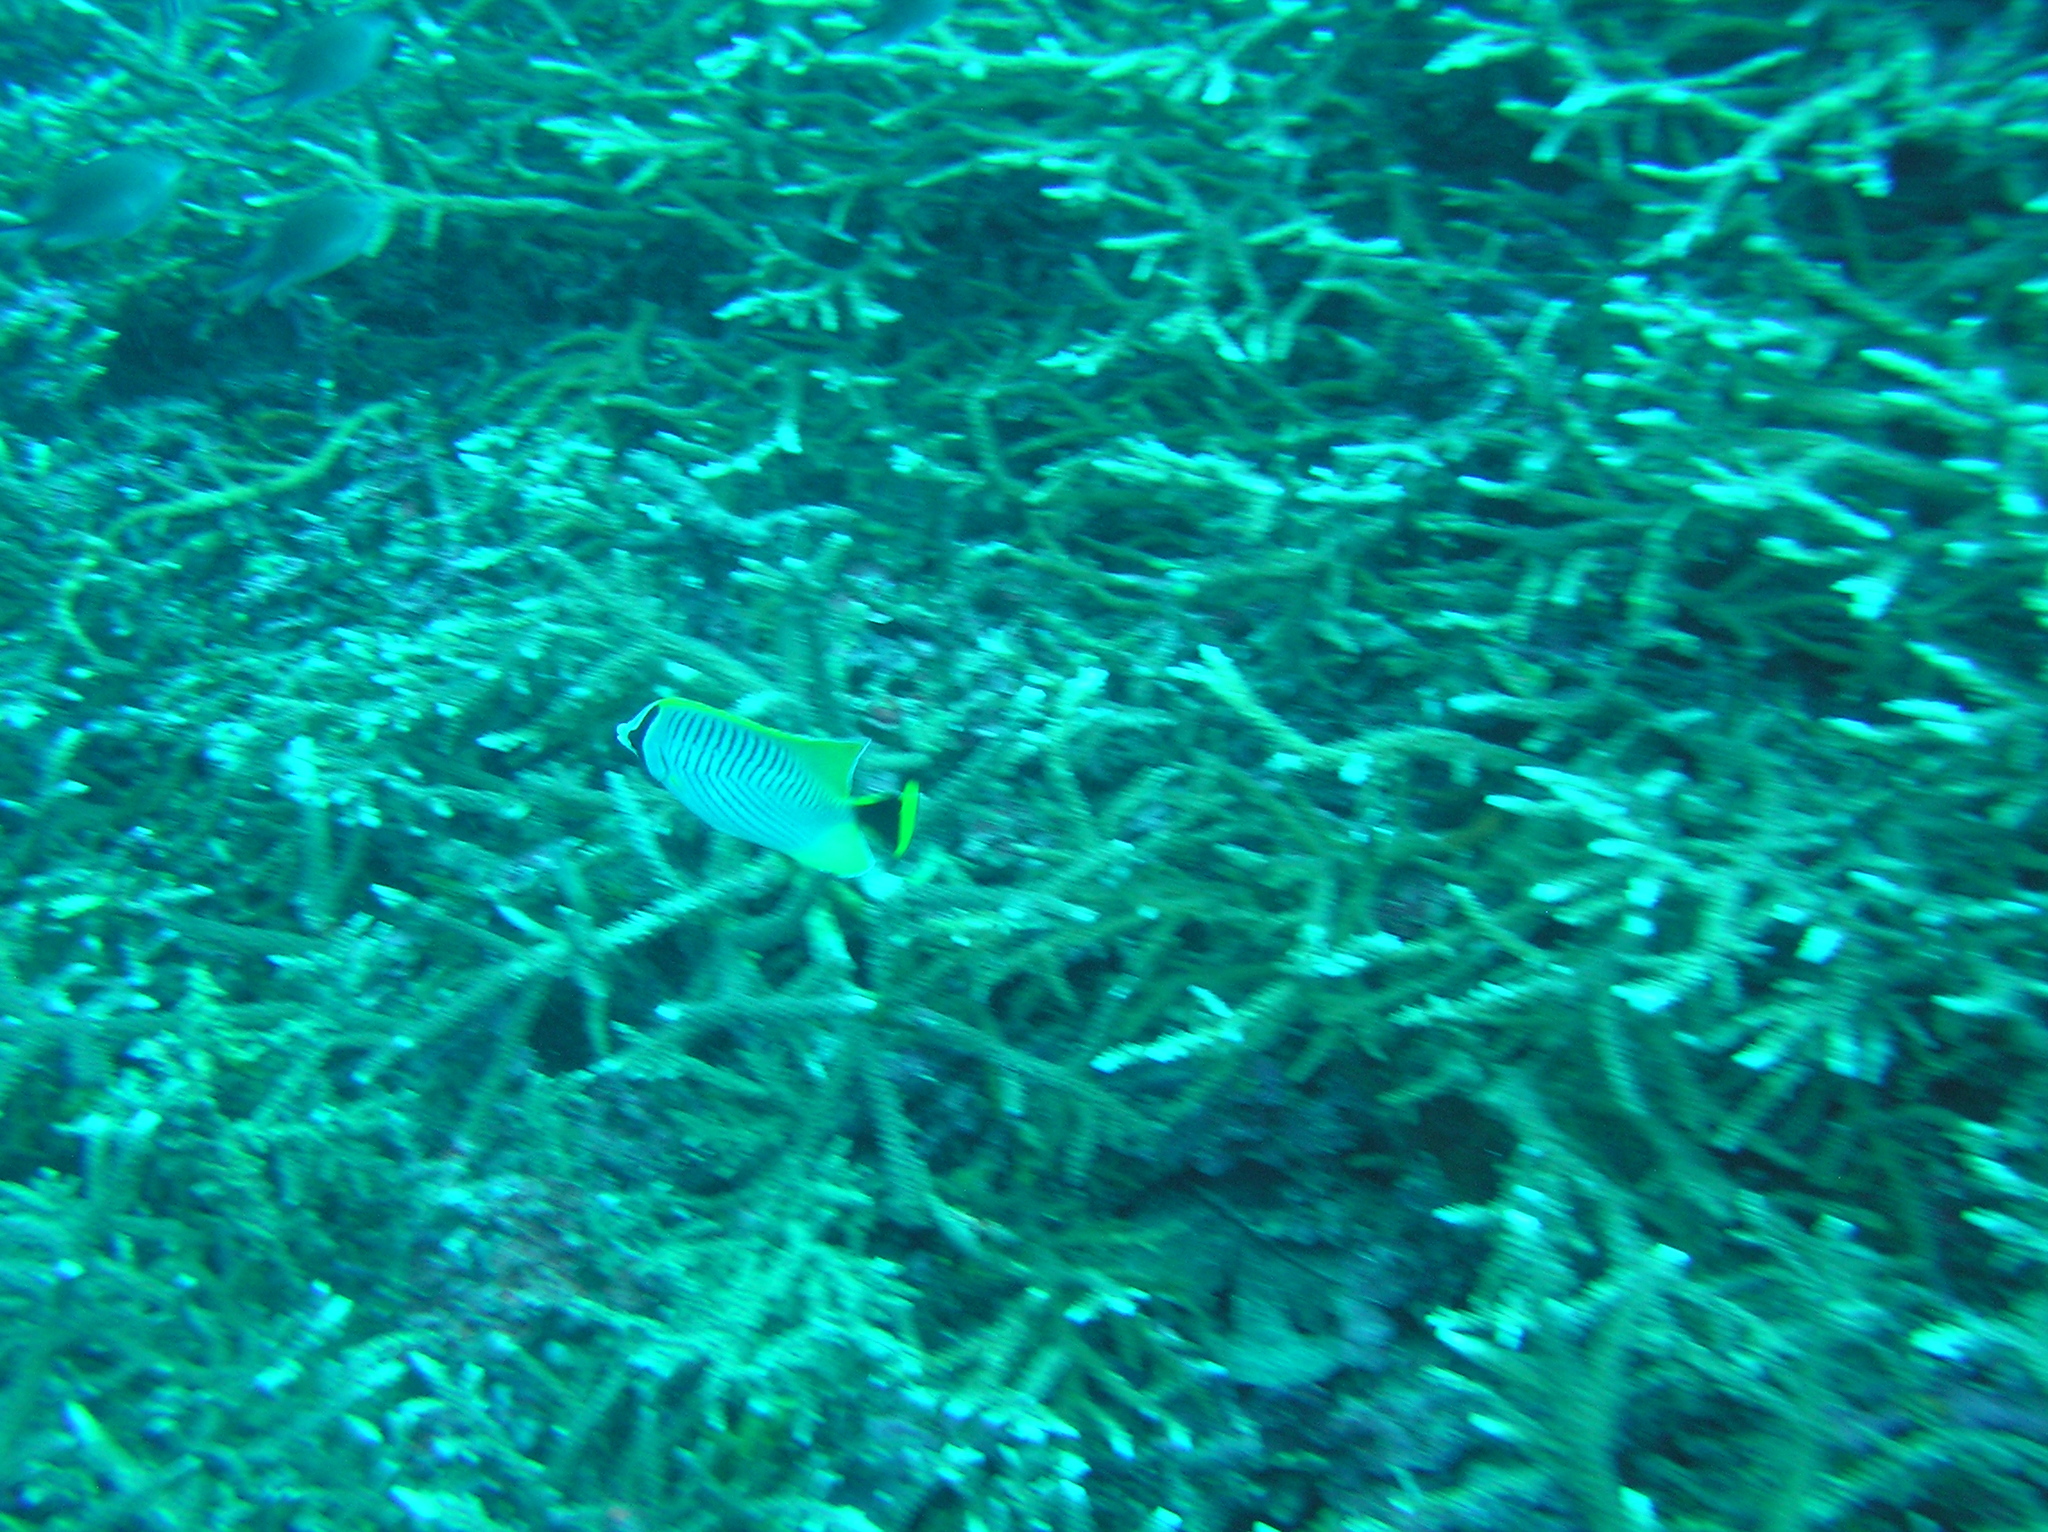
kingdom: Animalia
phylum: Chordata
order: Perciformes
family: Chaetodontidae
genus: Chaetodon
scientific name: Chaetodon trifascialis
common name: Chevroned butterflyfish
